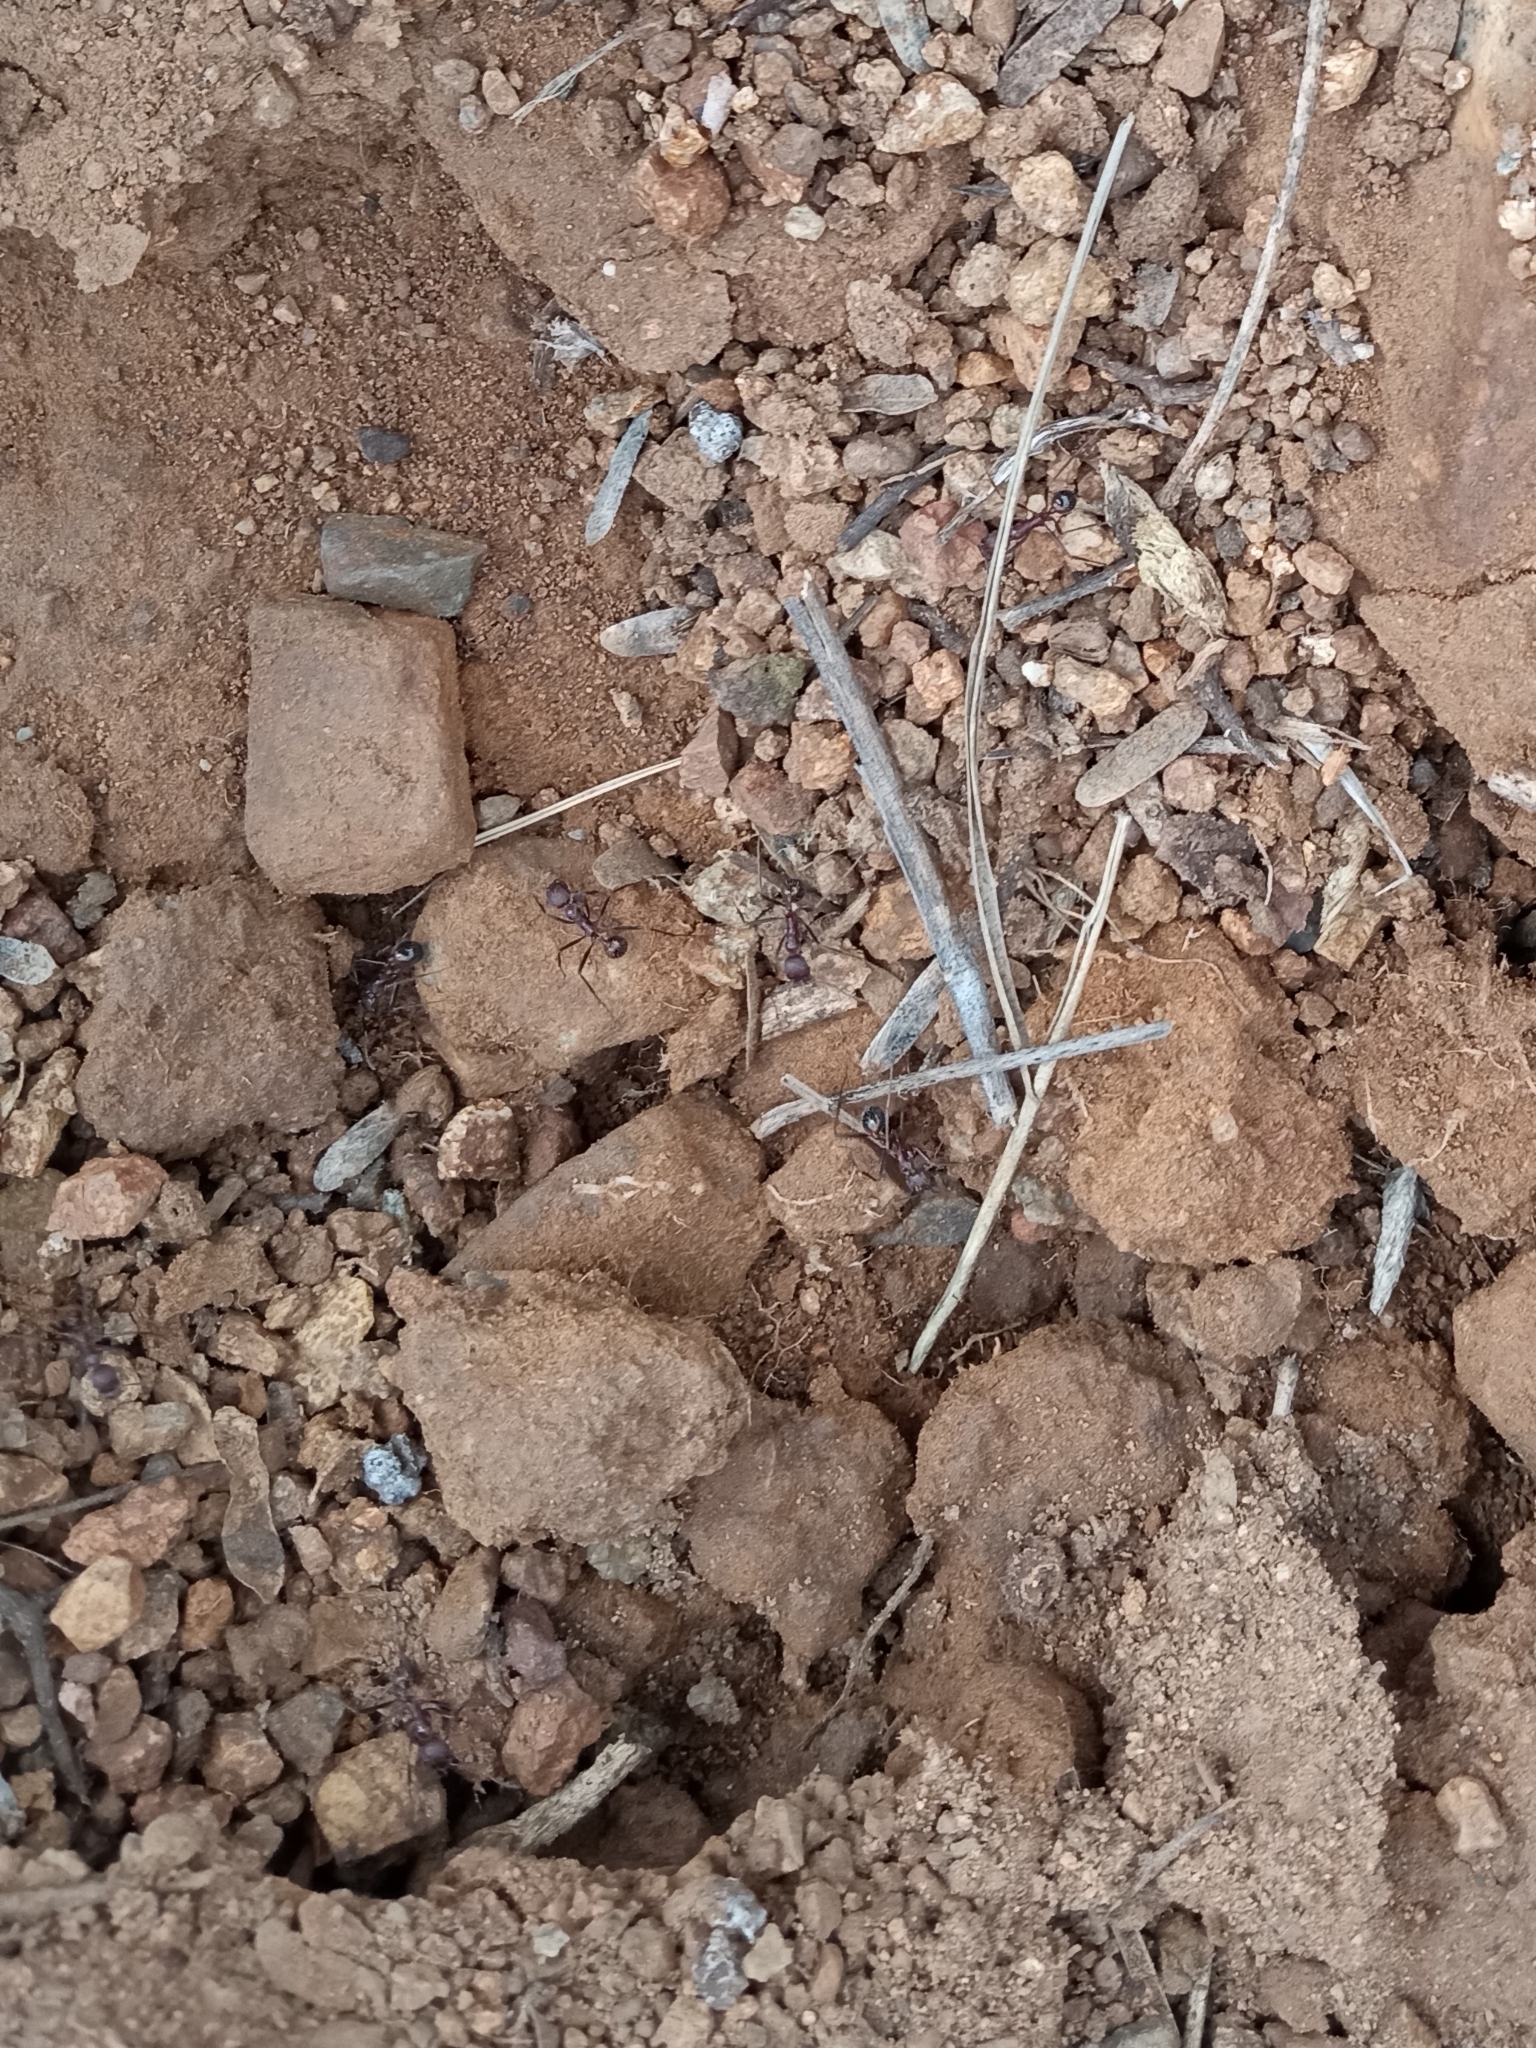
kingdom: Animalia
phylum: Arthropoda
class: Insecta
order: Hymenoptera
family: Formicidae
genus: Novomessor
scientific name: Novomessor albisetosa
